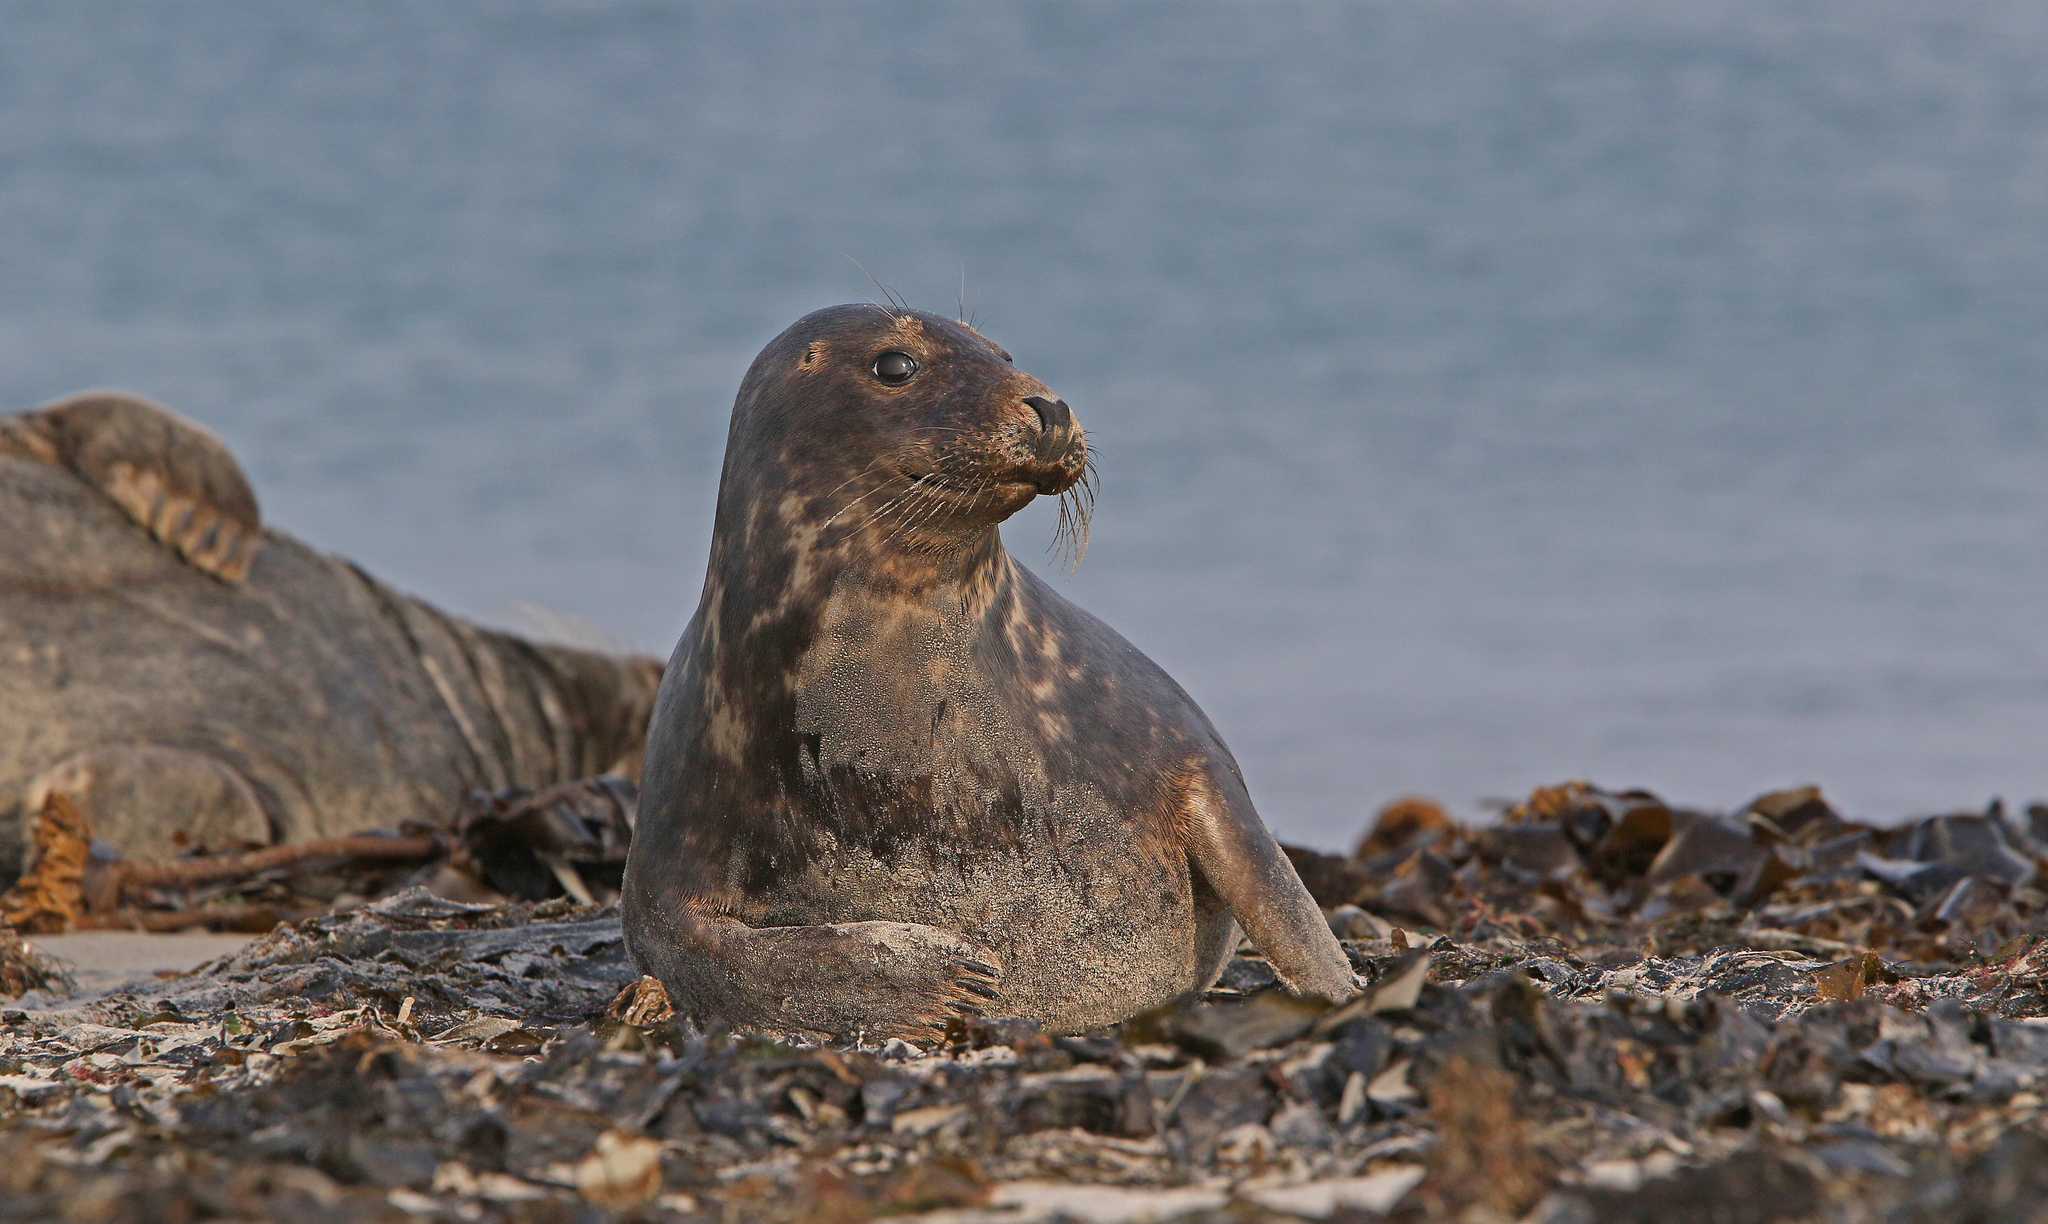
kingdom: Animalia
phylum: Chordata
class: Mammalia
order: Carnivora
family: Phocidae
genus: Halichoerus
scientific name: Halichoerus grypus
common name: Grey seal
